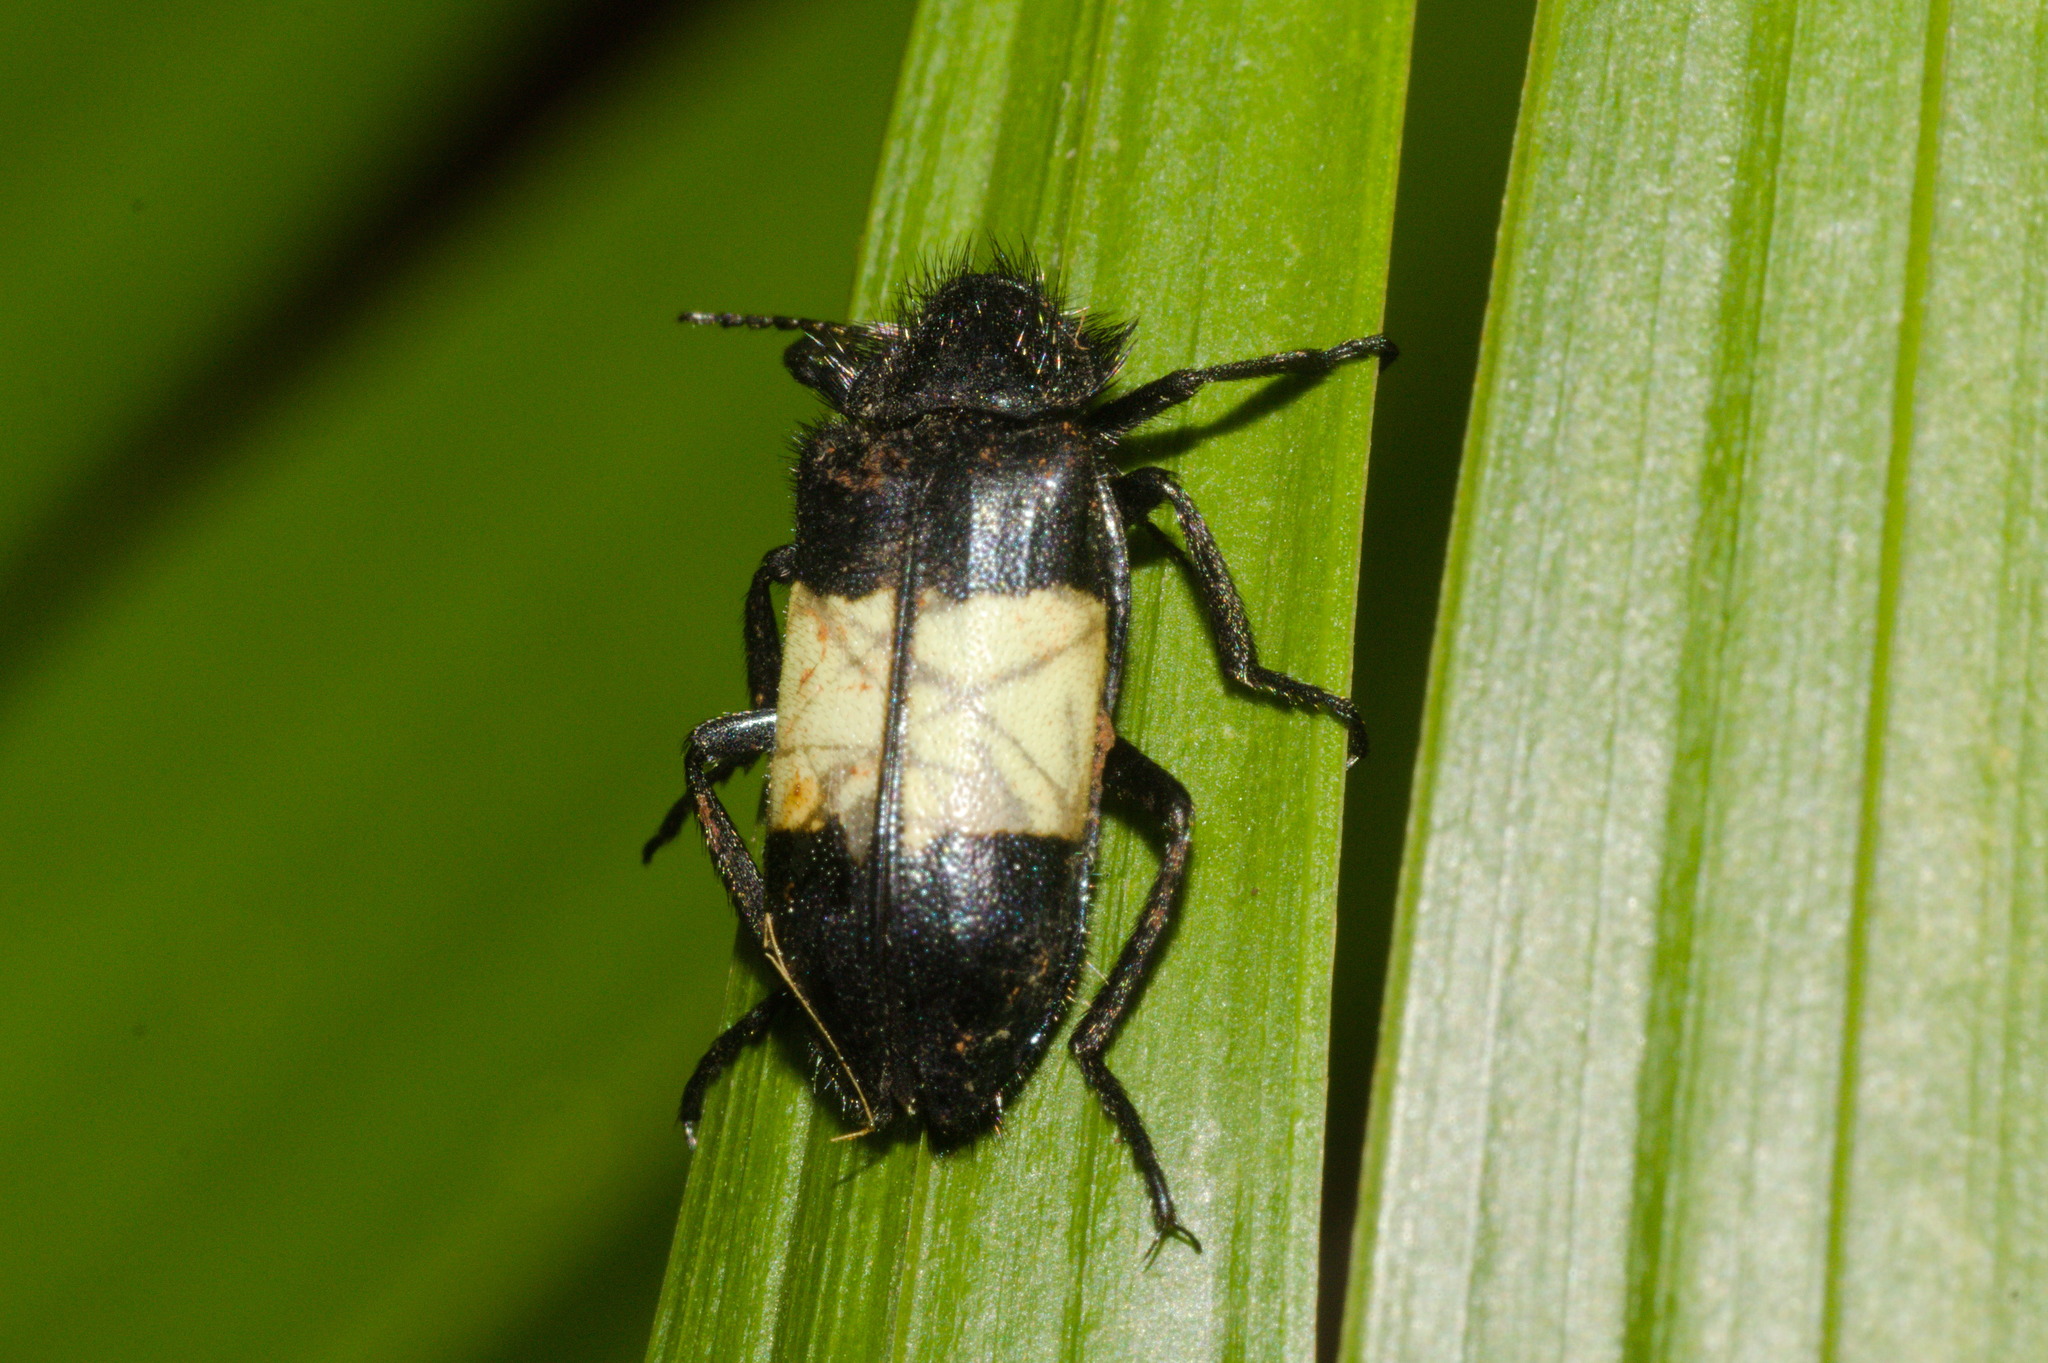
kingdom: Animalia
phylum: Arthropoda
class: Insecta
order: Coleoptera
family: Melyridae
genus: Astylus
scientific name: Astylus
